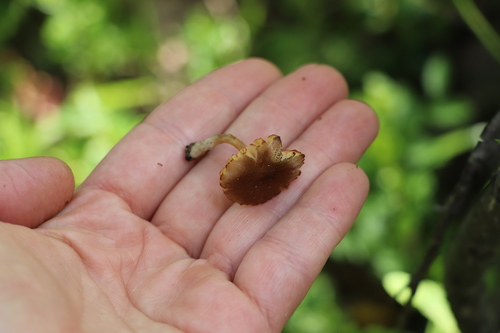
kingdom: Fungi
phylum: Basidiomycota
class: Agaricomycetes
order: Agaricales
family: Pluteaceae
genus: Pluteus
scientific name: Pluteus podospileus
